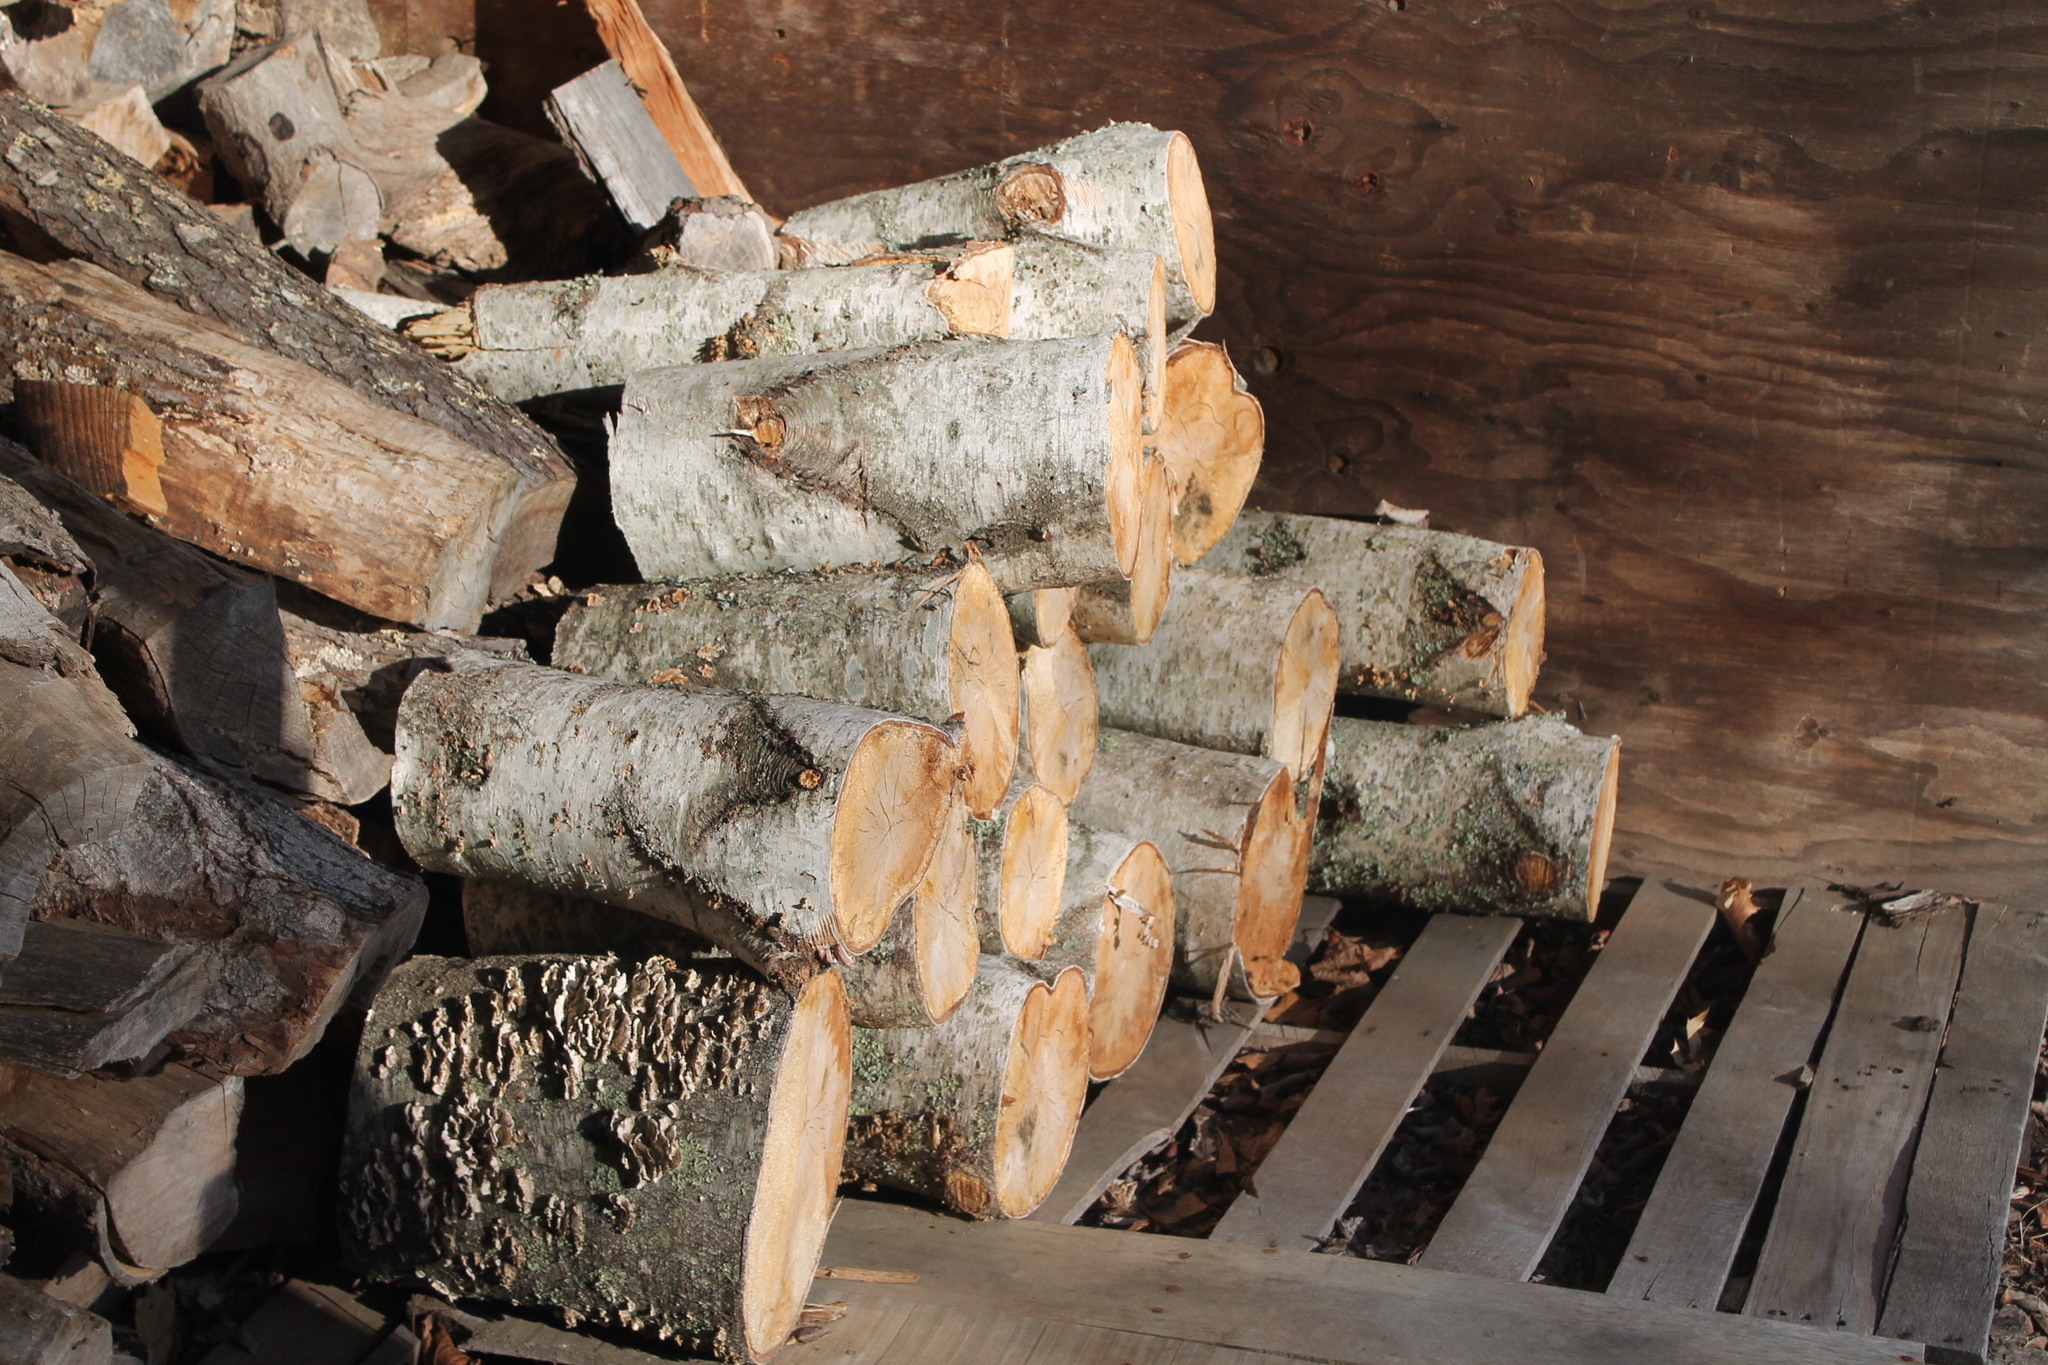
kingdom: Plantae
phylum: Tracheophyta
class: Magnoliopsida
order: Fagales
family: Betulaceae
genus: Betula
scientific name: Betula populifolia
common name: Fire birch
